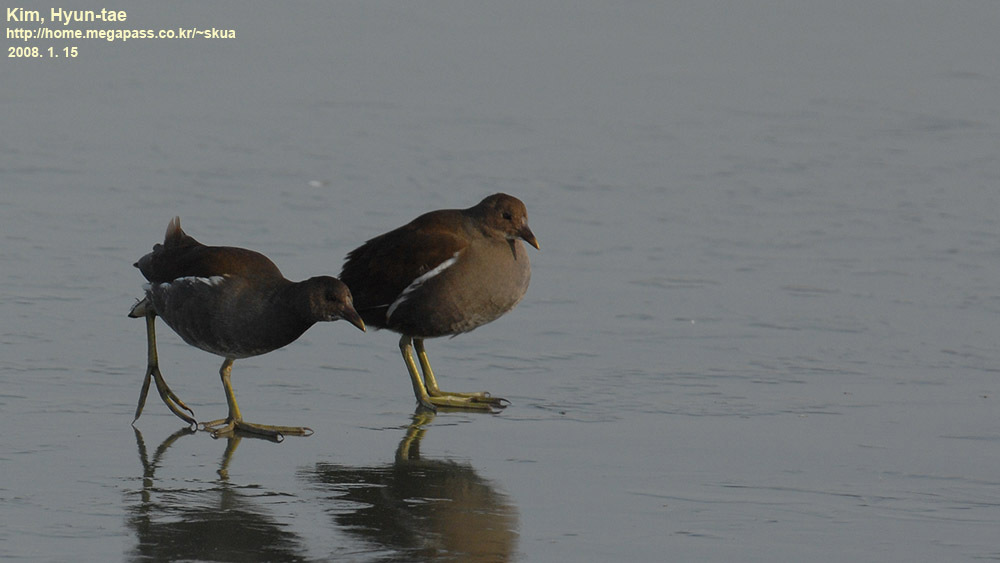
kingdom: Animalia
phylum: Chordata
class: Aves
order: Gruiformes
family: Rallidae
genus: Gallinula
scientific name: Gallinula chloropus
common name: Common moorhen
